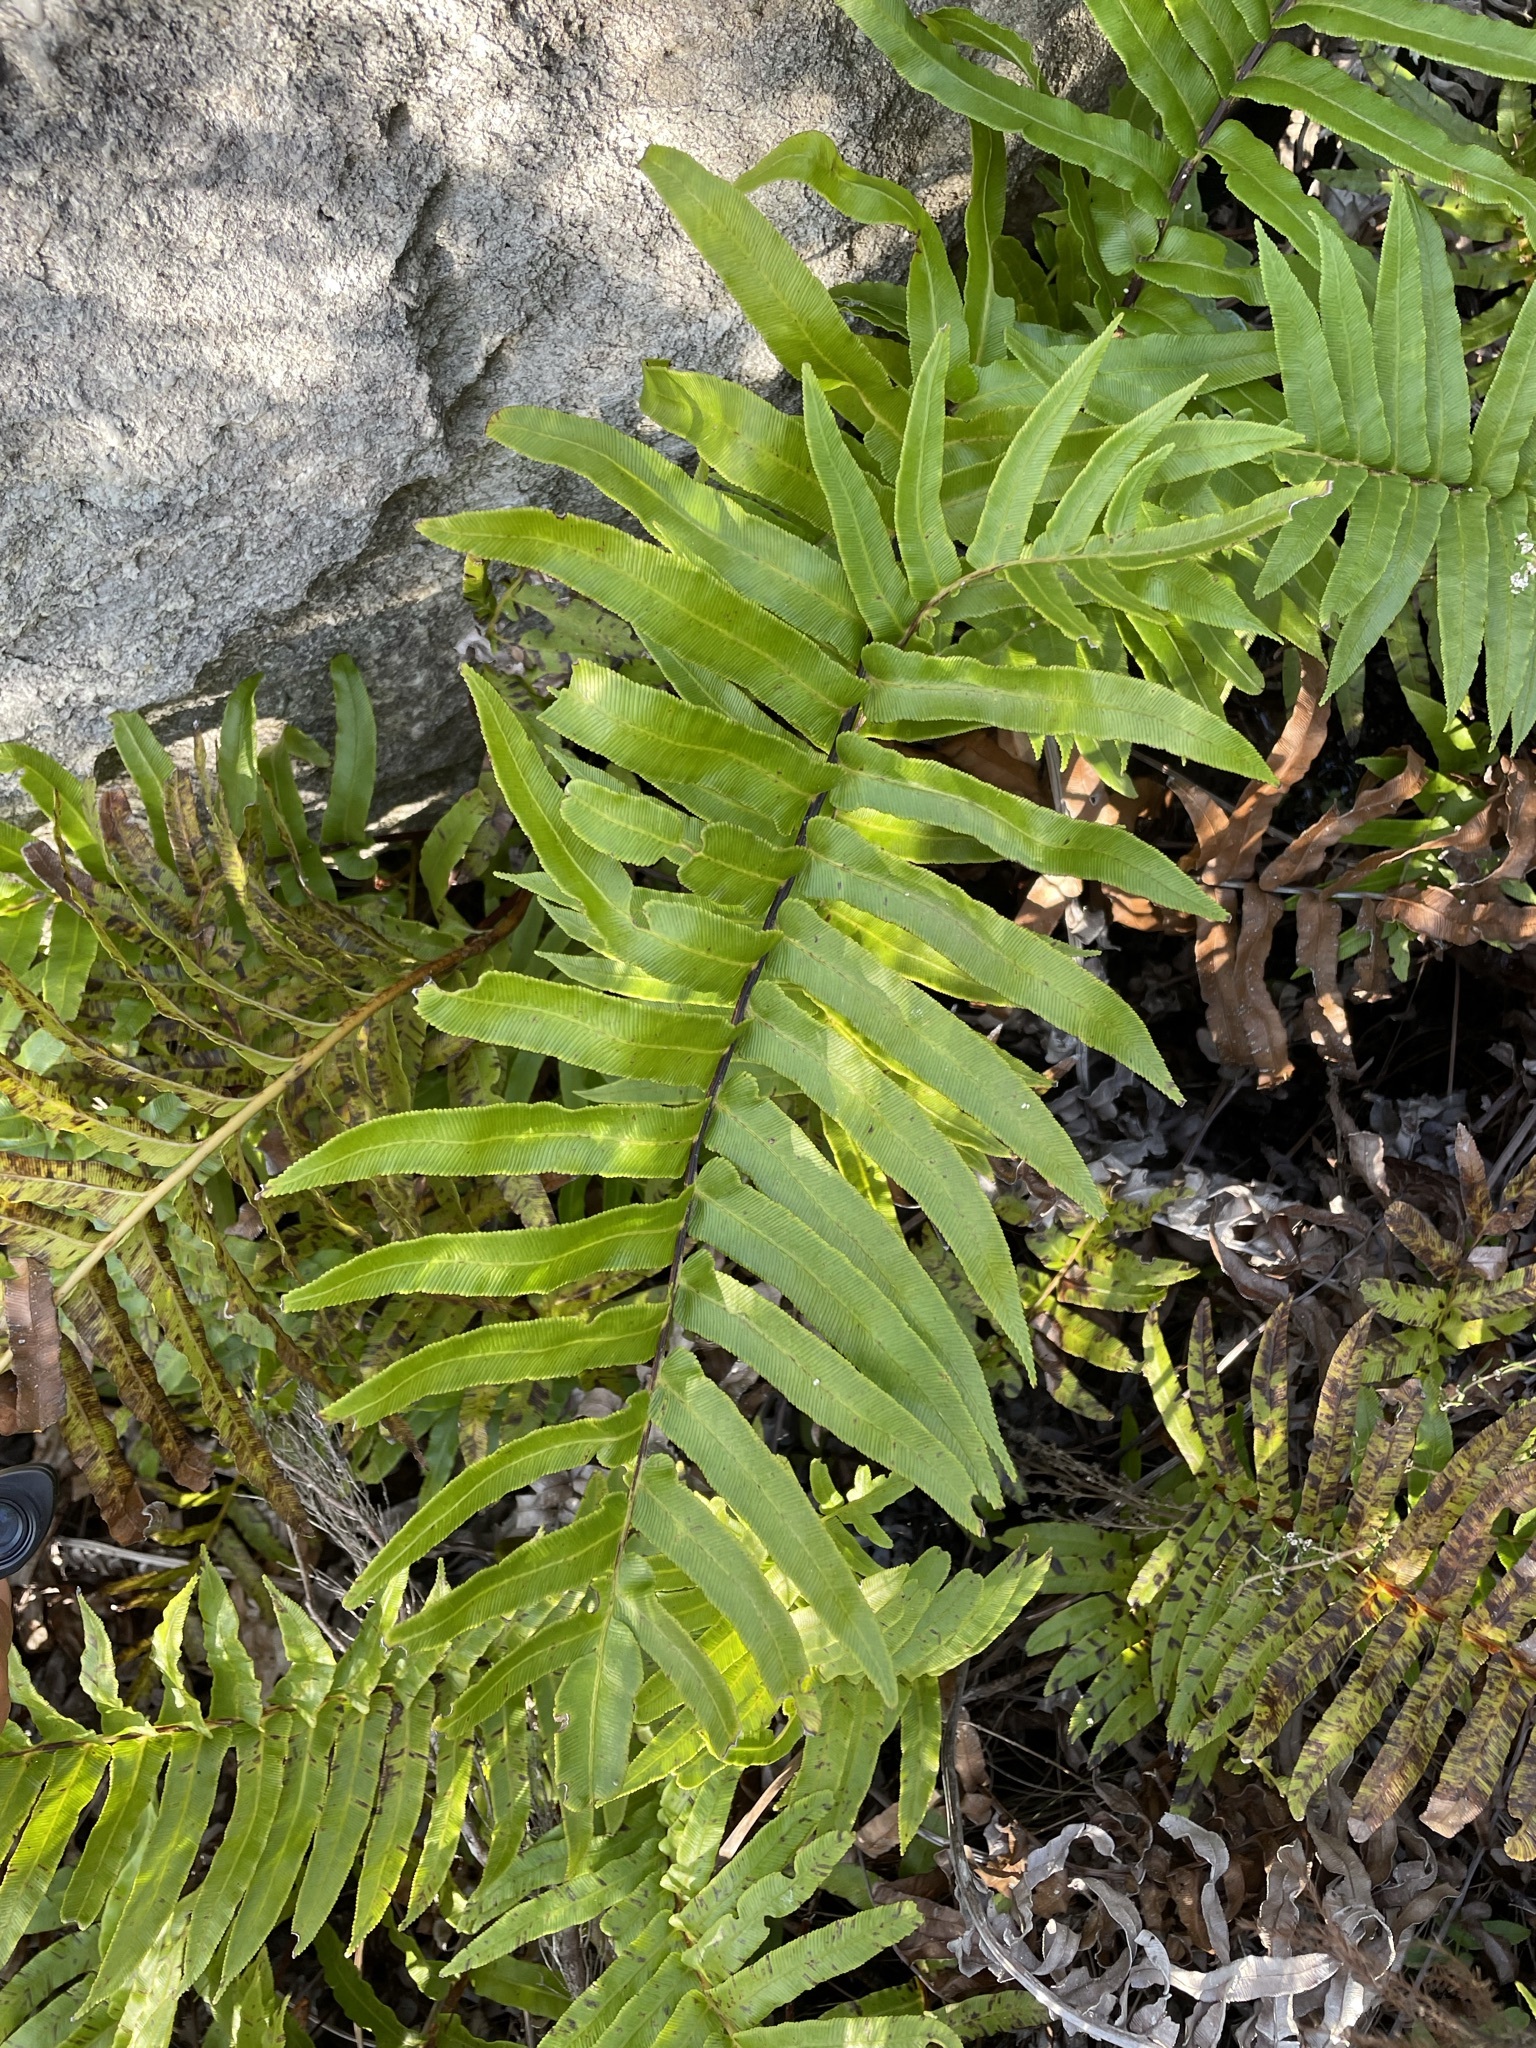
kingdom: Plantae
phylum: Tracheophyta
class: Polypodiopsida
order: Polypodiales
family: Blechnaceae
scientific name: Blechnaceae
